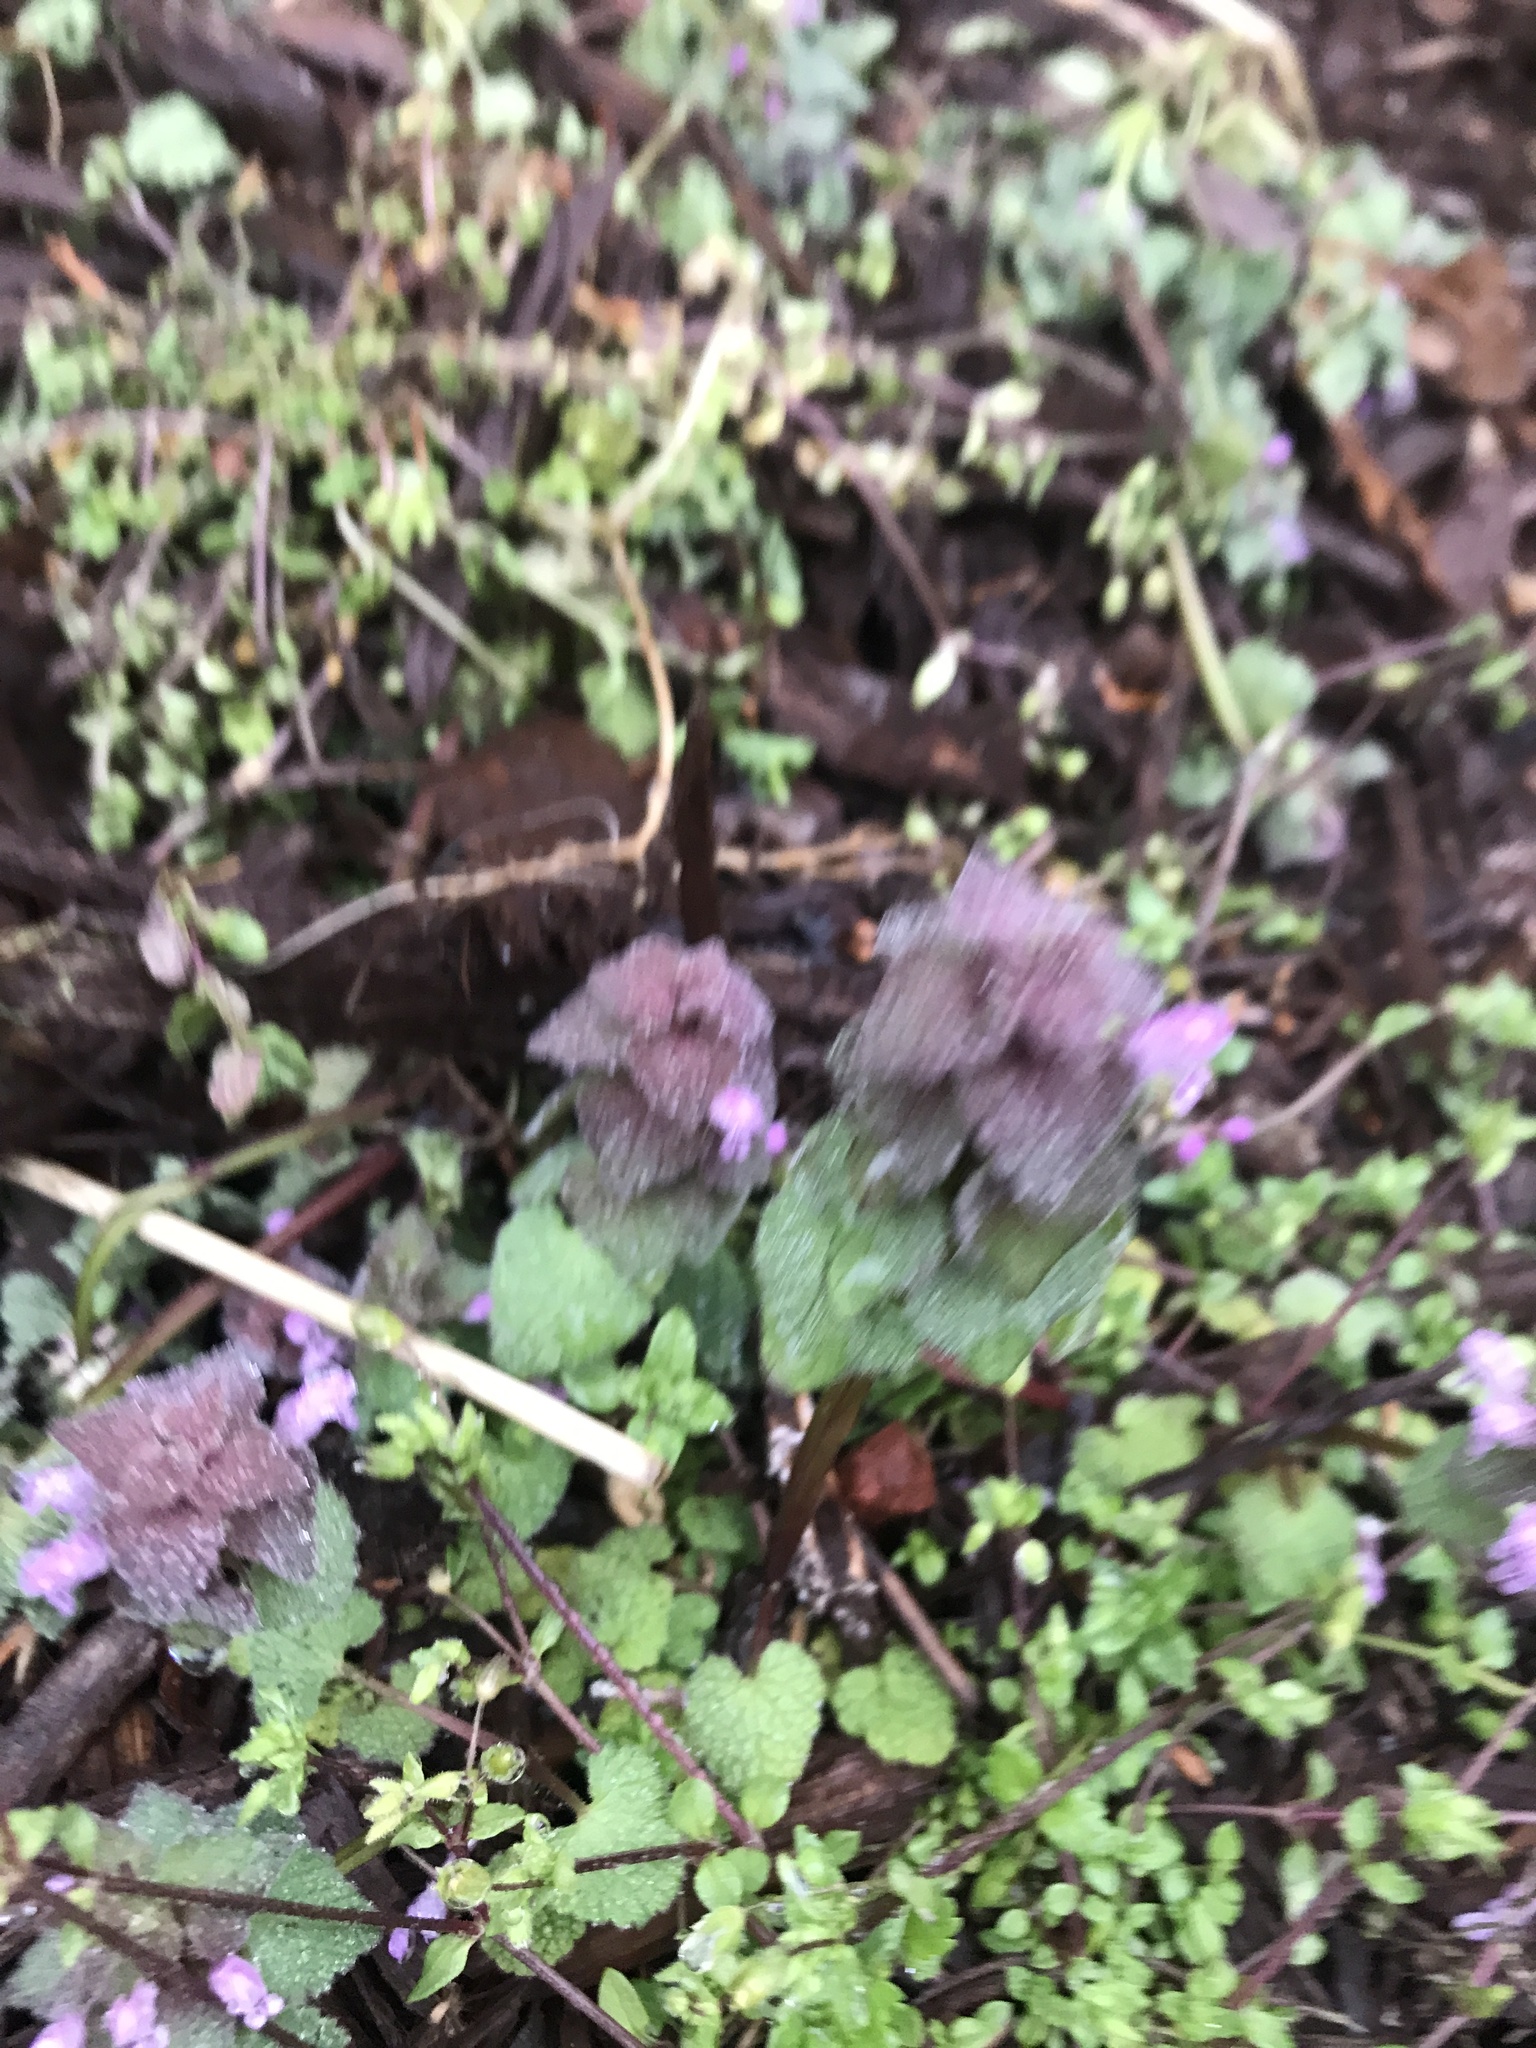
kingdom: Plantae
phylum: Tracheophyta
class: Magnoliopsida
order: Lamiales
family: Lamiaceae
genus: Lamium
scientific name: Lamium purpureum
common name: Red dead-nettle
